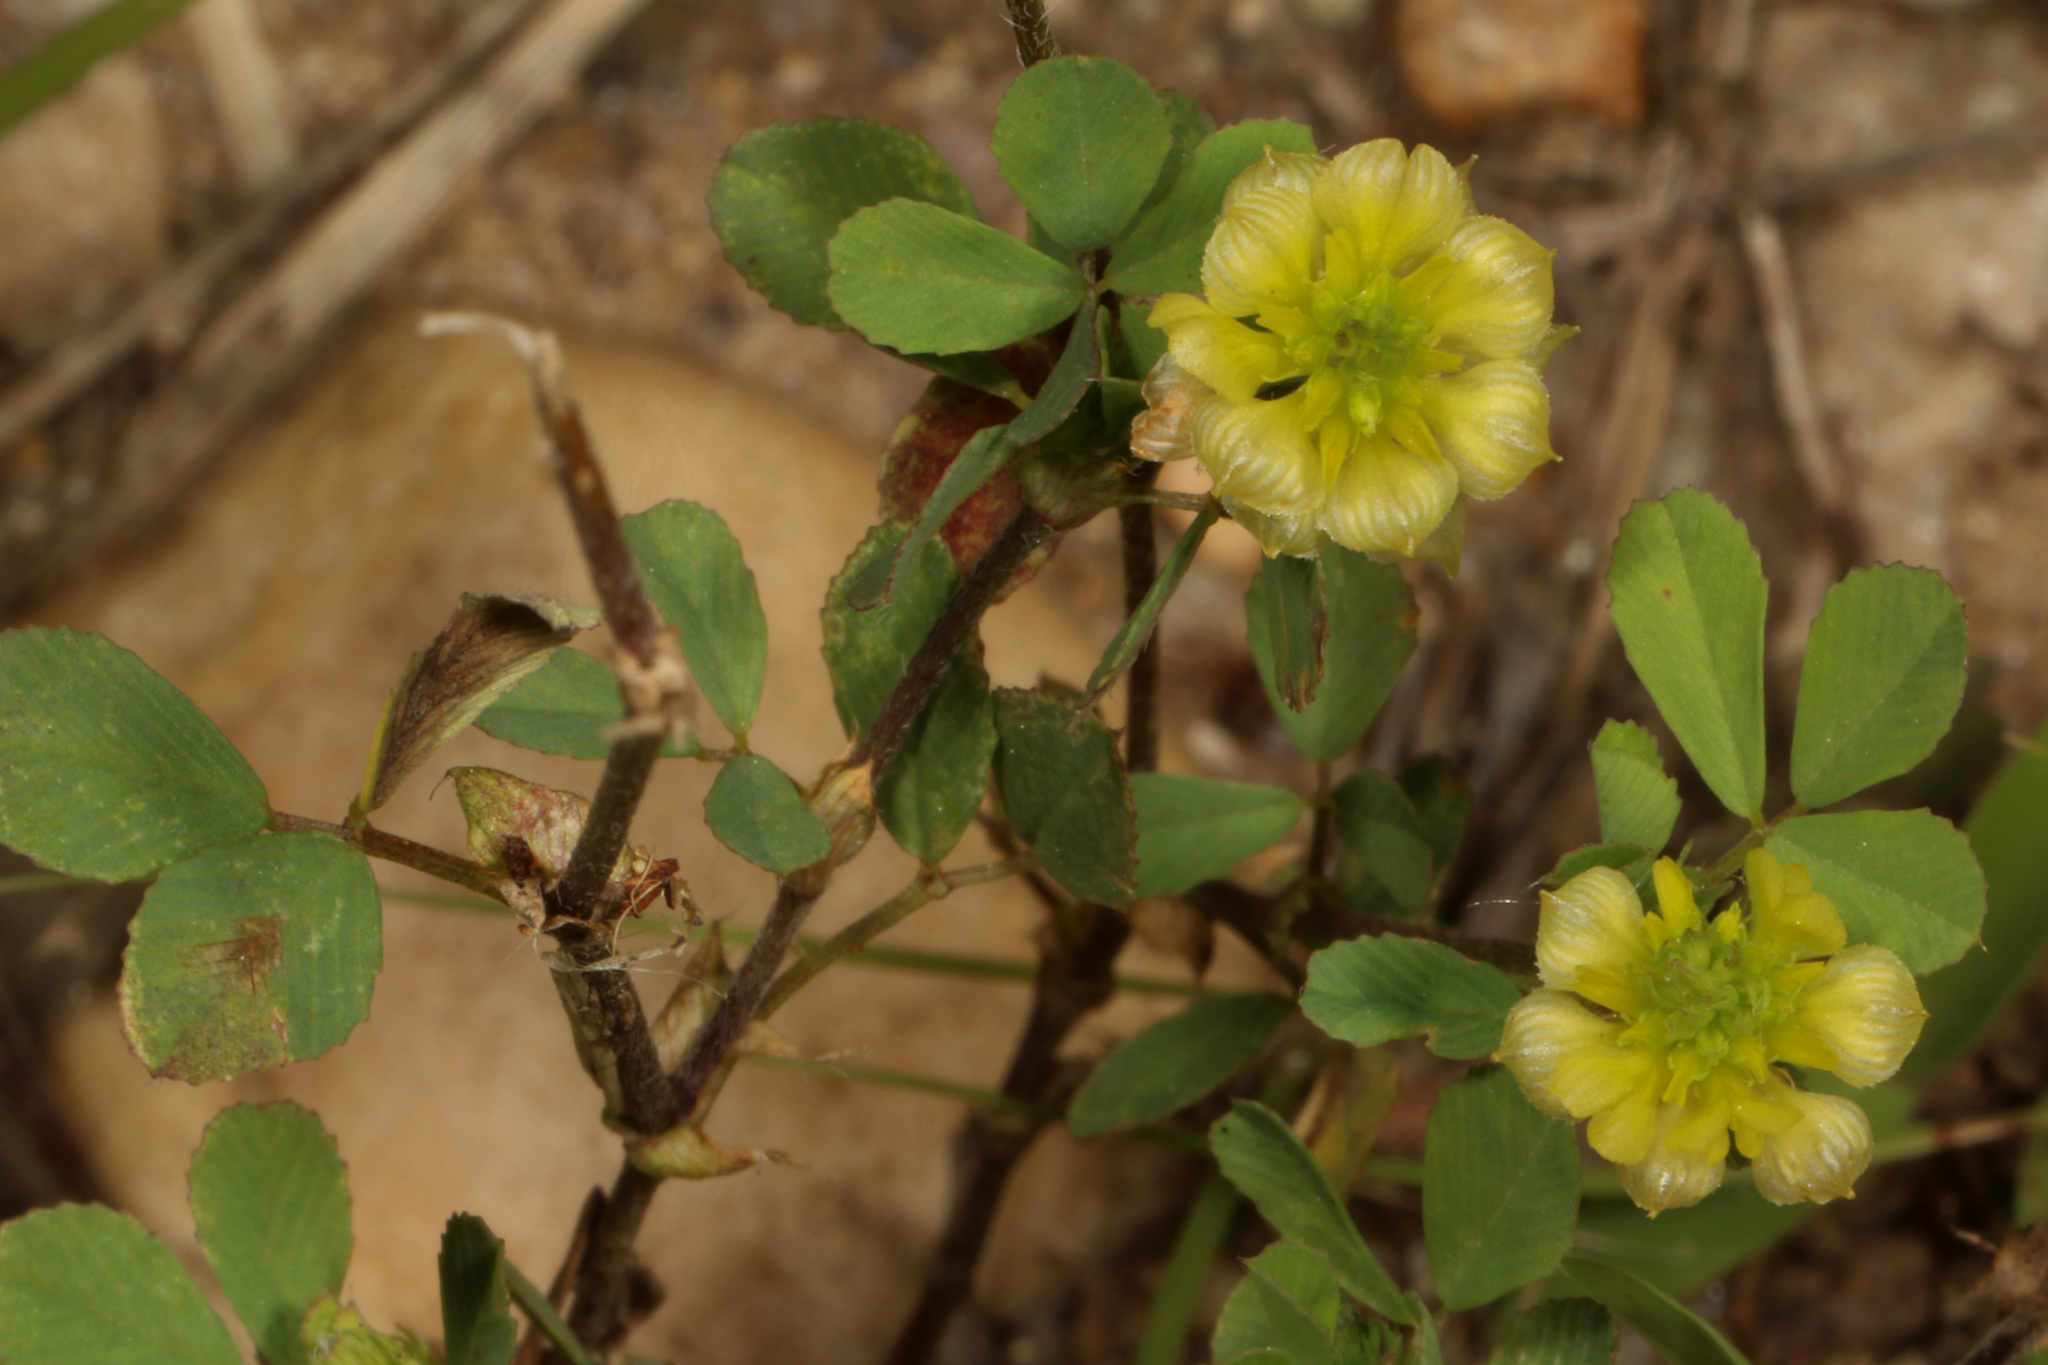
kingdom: Plantae
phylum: Tracheophyta
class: Magnoliopsida
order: Fabales
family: Fabaceae
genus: Trifolium
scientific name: Trifolium campestre
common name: Field clover
